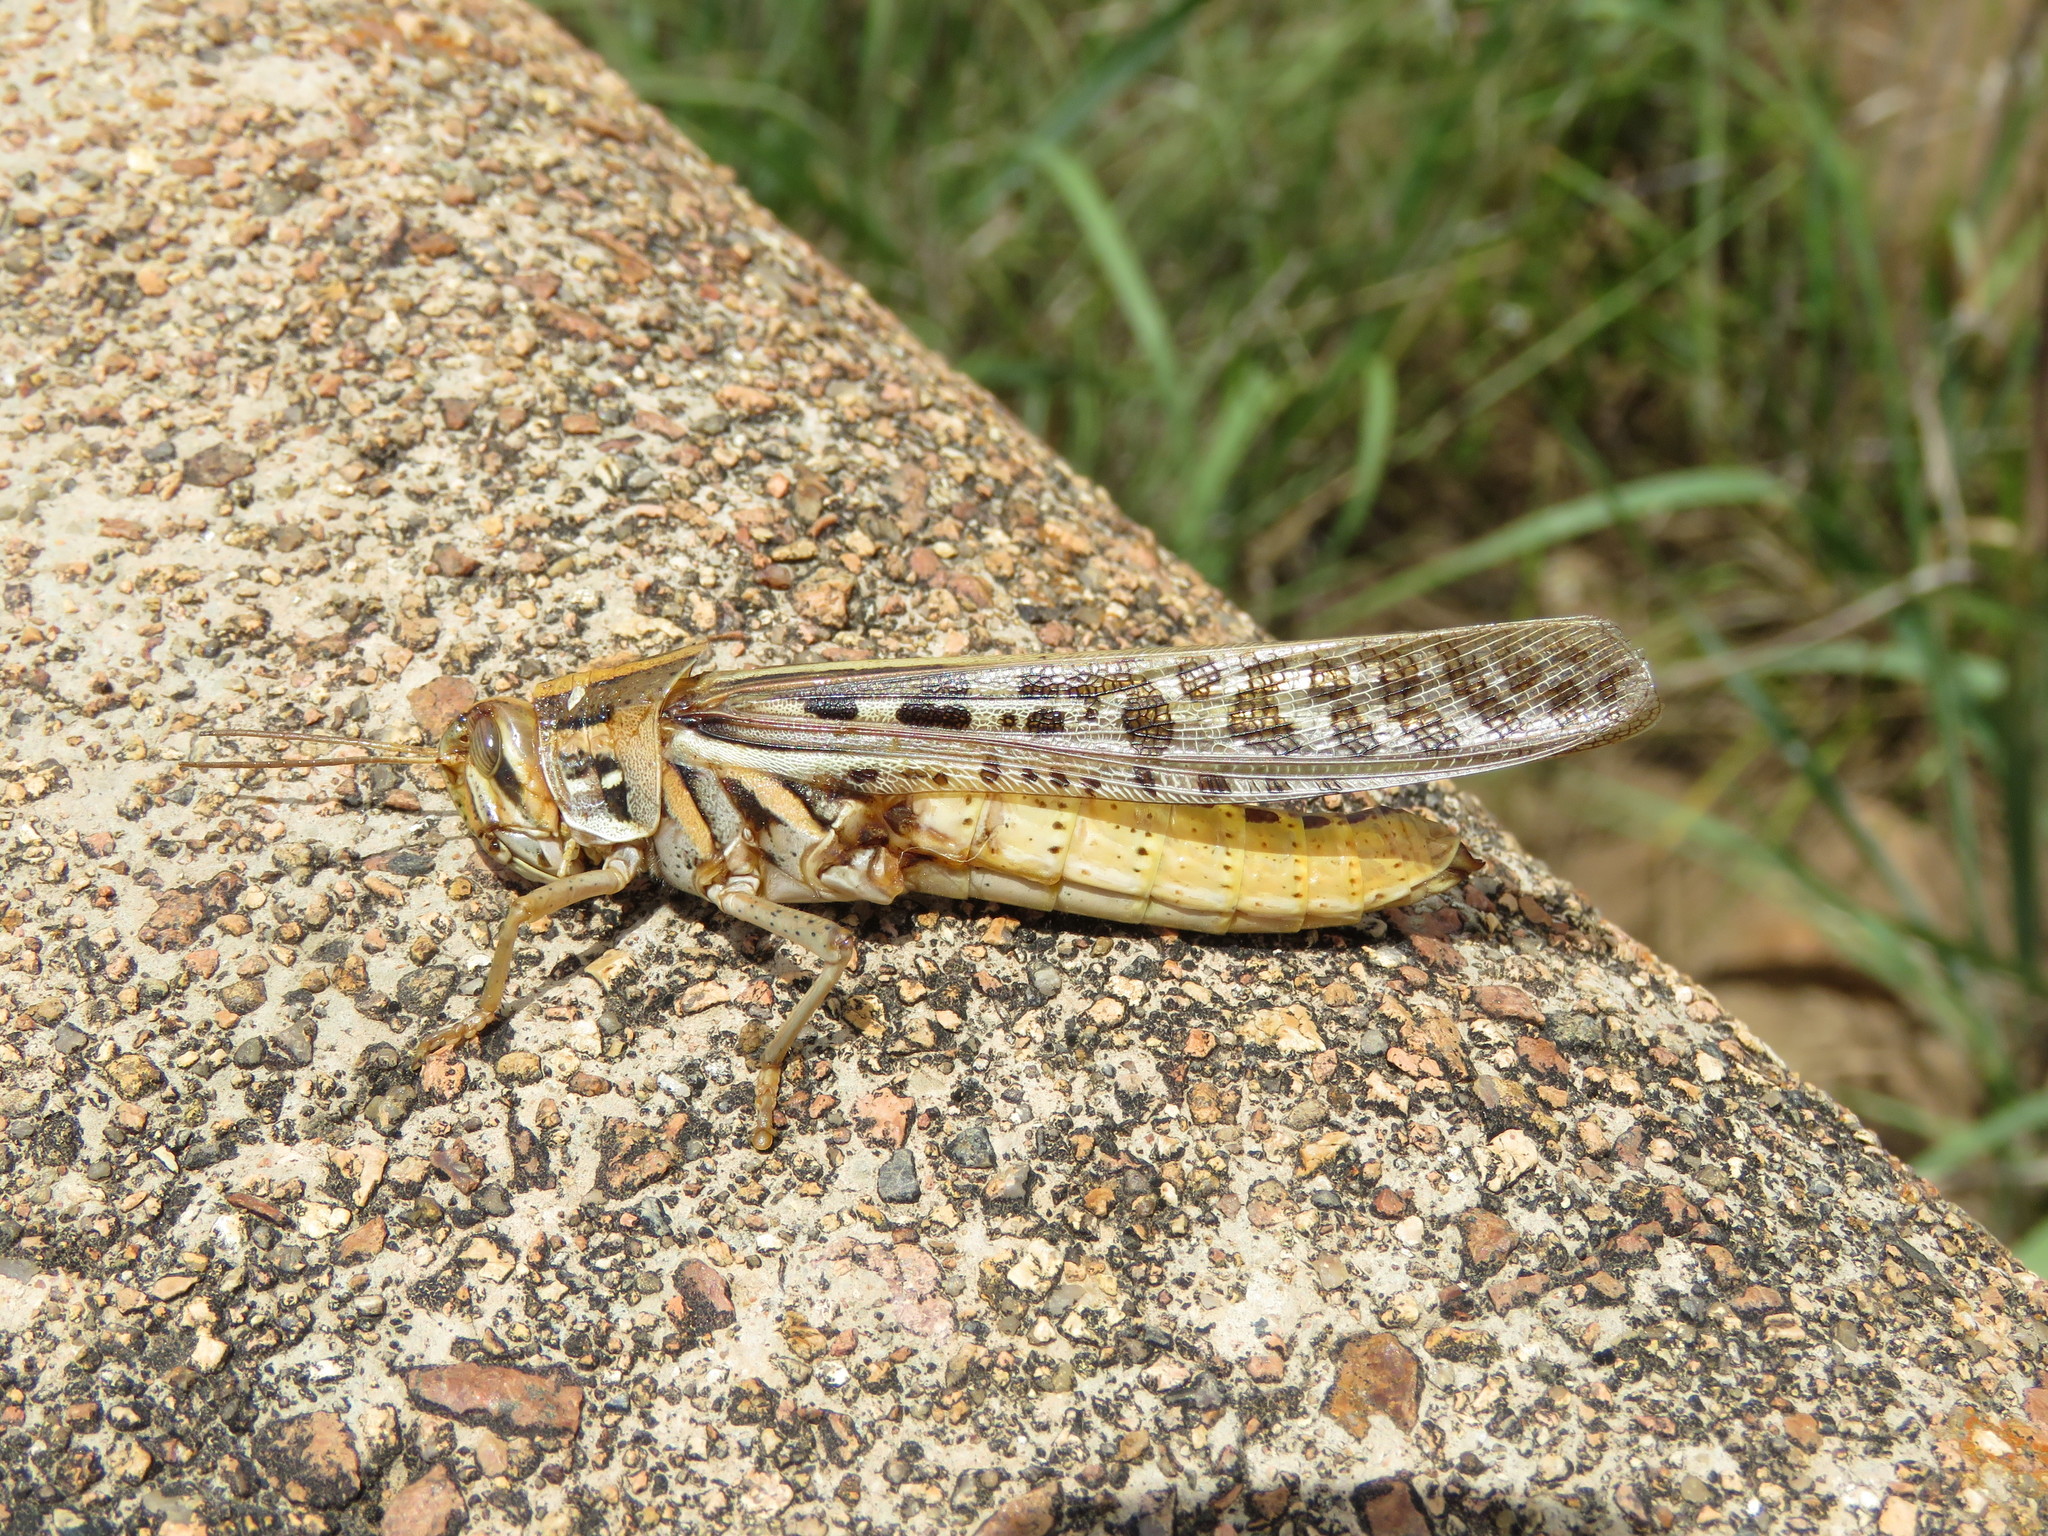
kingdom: Animalia
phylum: Arthropoda
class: Insecta
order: Orthoptera
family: Acrididae
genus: Schistocerca
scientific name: Schistocerca americana
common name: American bird locust
